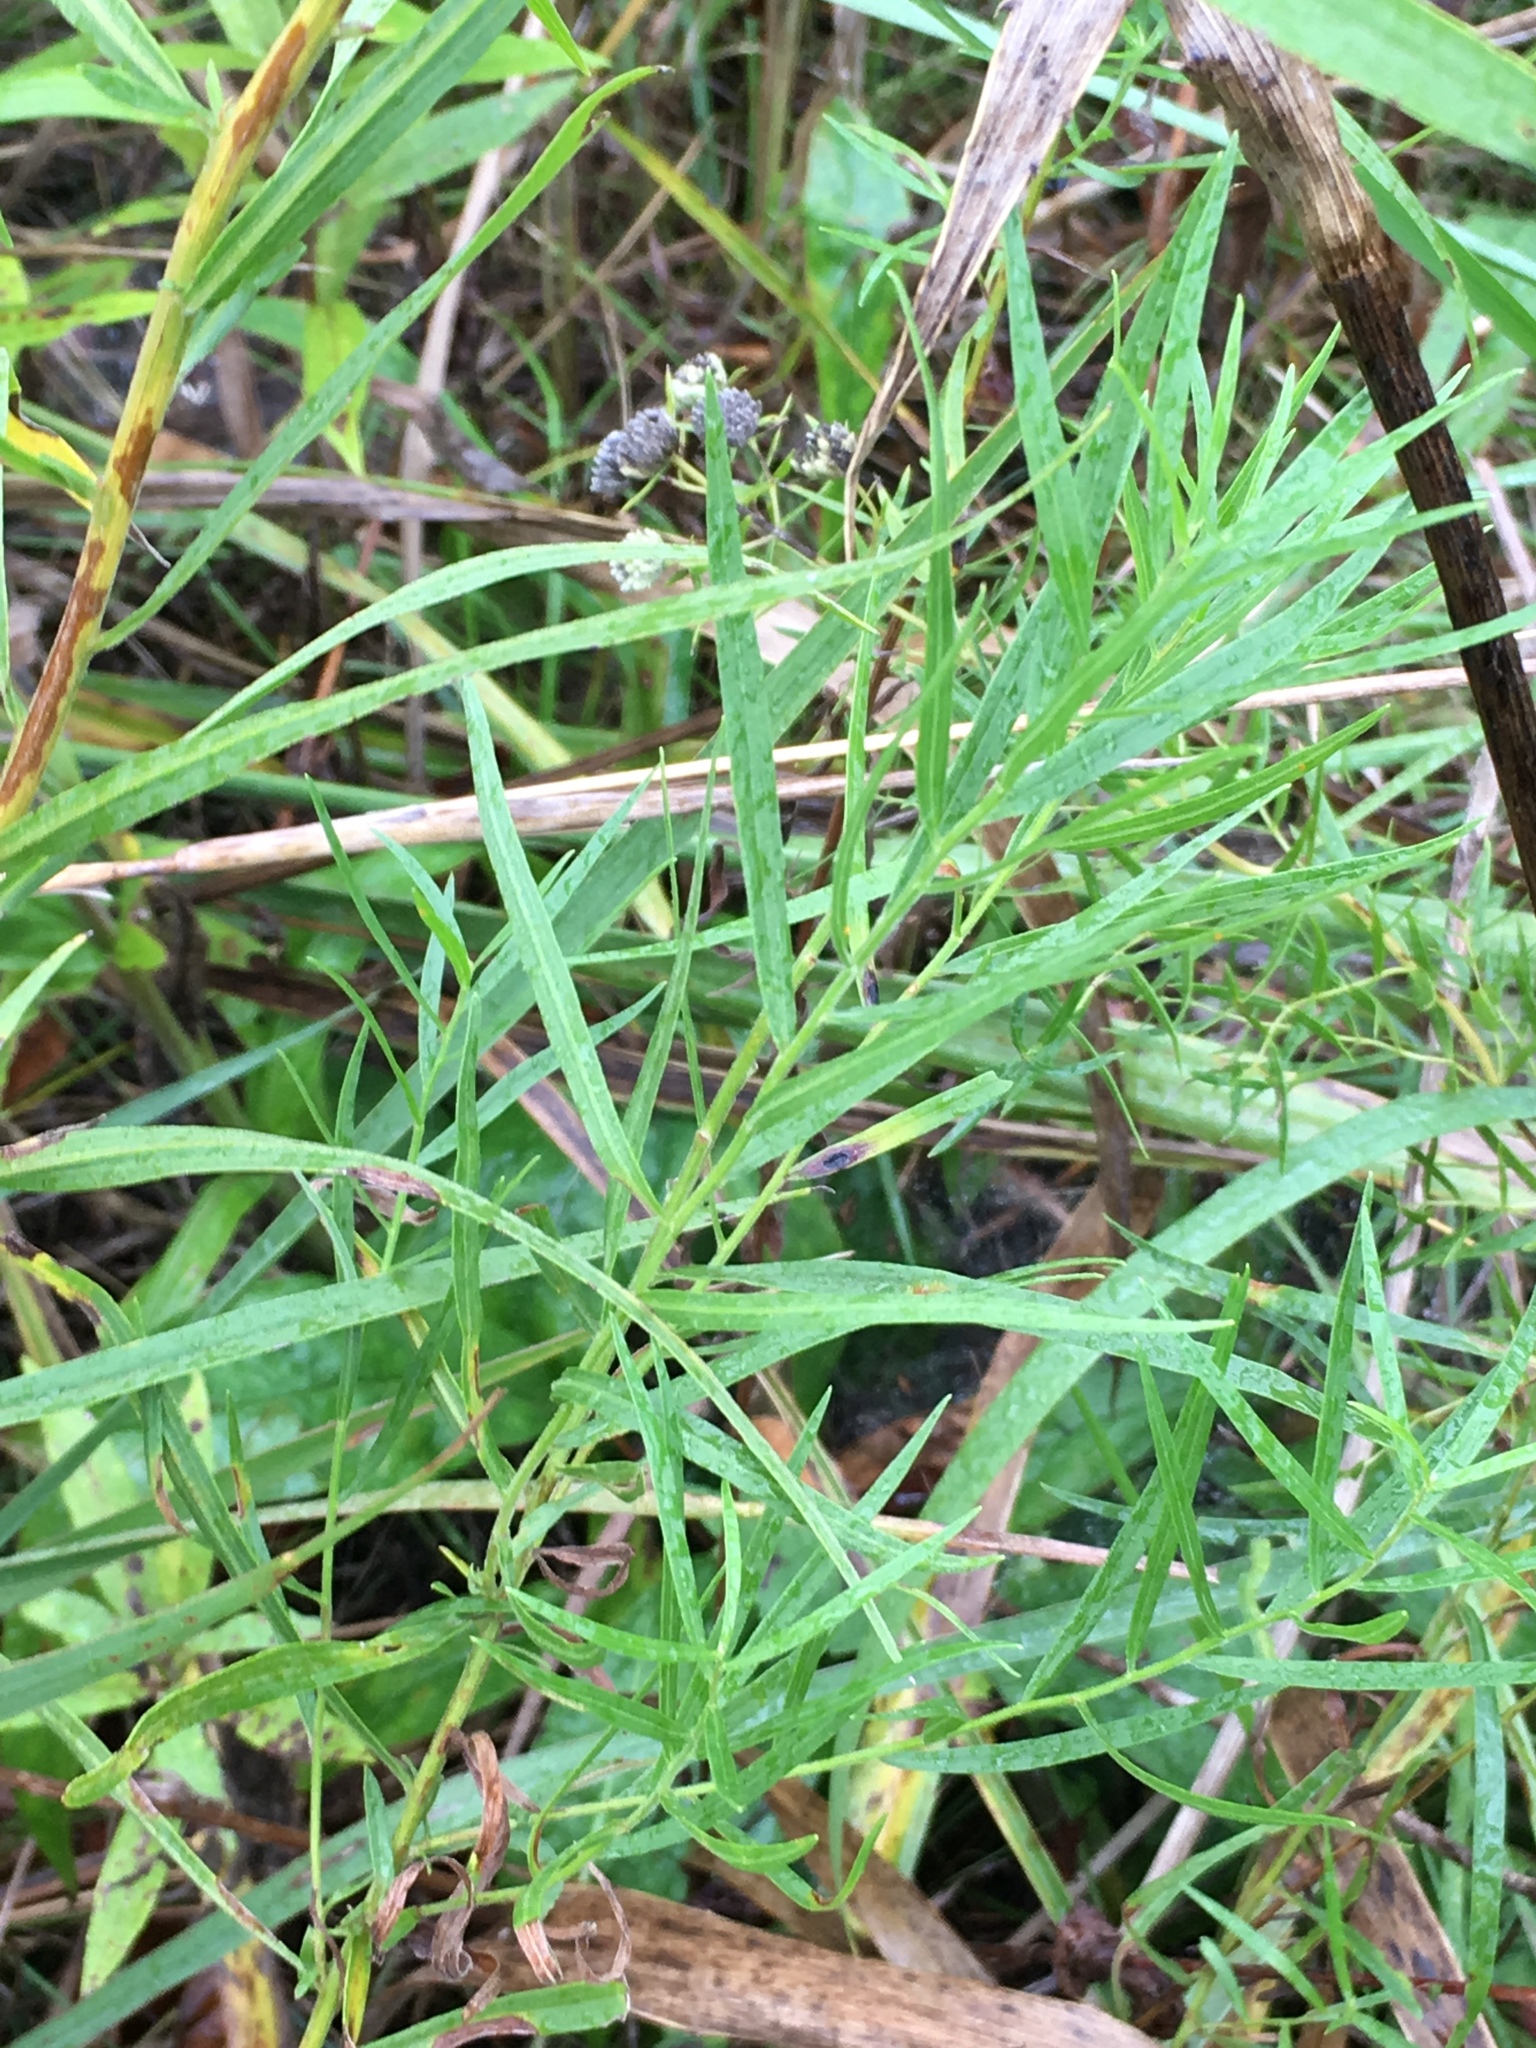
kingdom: Plantae
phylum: Tracheophyta
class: Magnoliopsida
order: Lamiales
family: Lamiaceae
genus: Pycnanthemum
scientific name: Pycnanthemum virginianum
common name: Virginia mountain-mint
